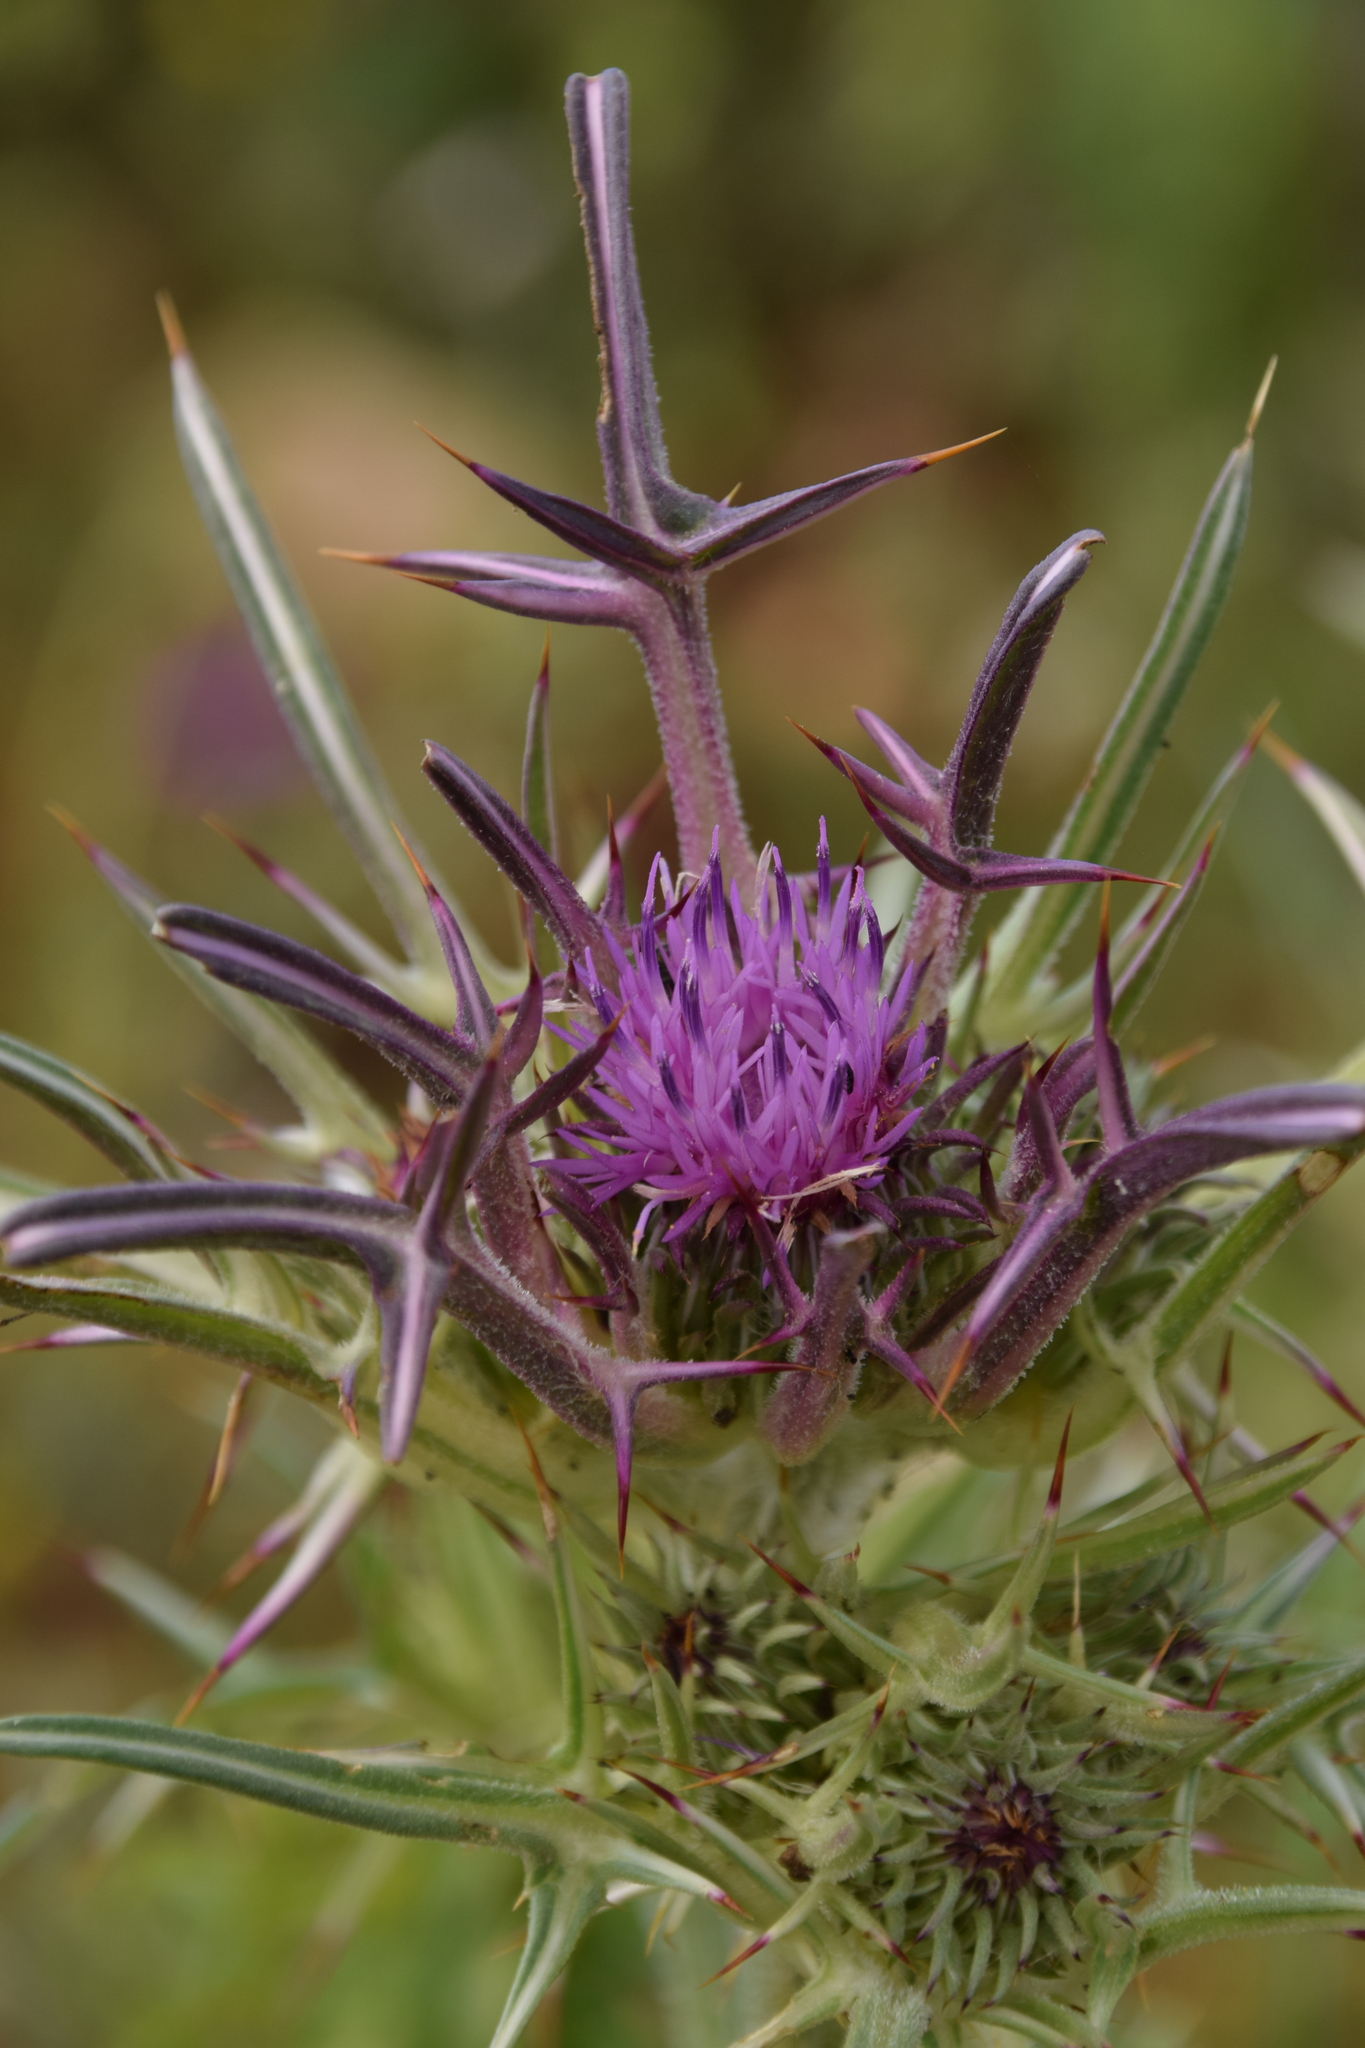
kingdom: Plantae
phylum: Tracheophyta
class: Magnoliopsida
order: Asterales
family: Asteraceae
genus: Notobasis
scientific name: Notobasis syriaca
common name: Syrian thistle
